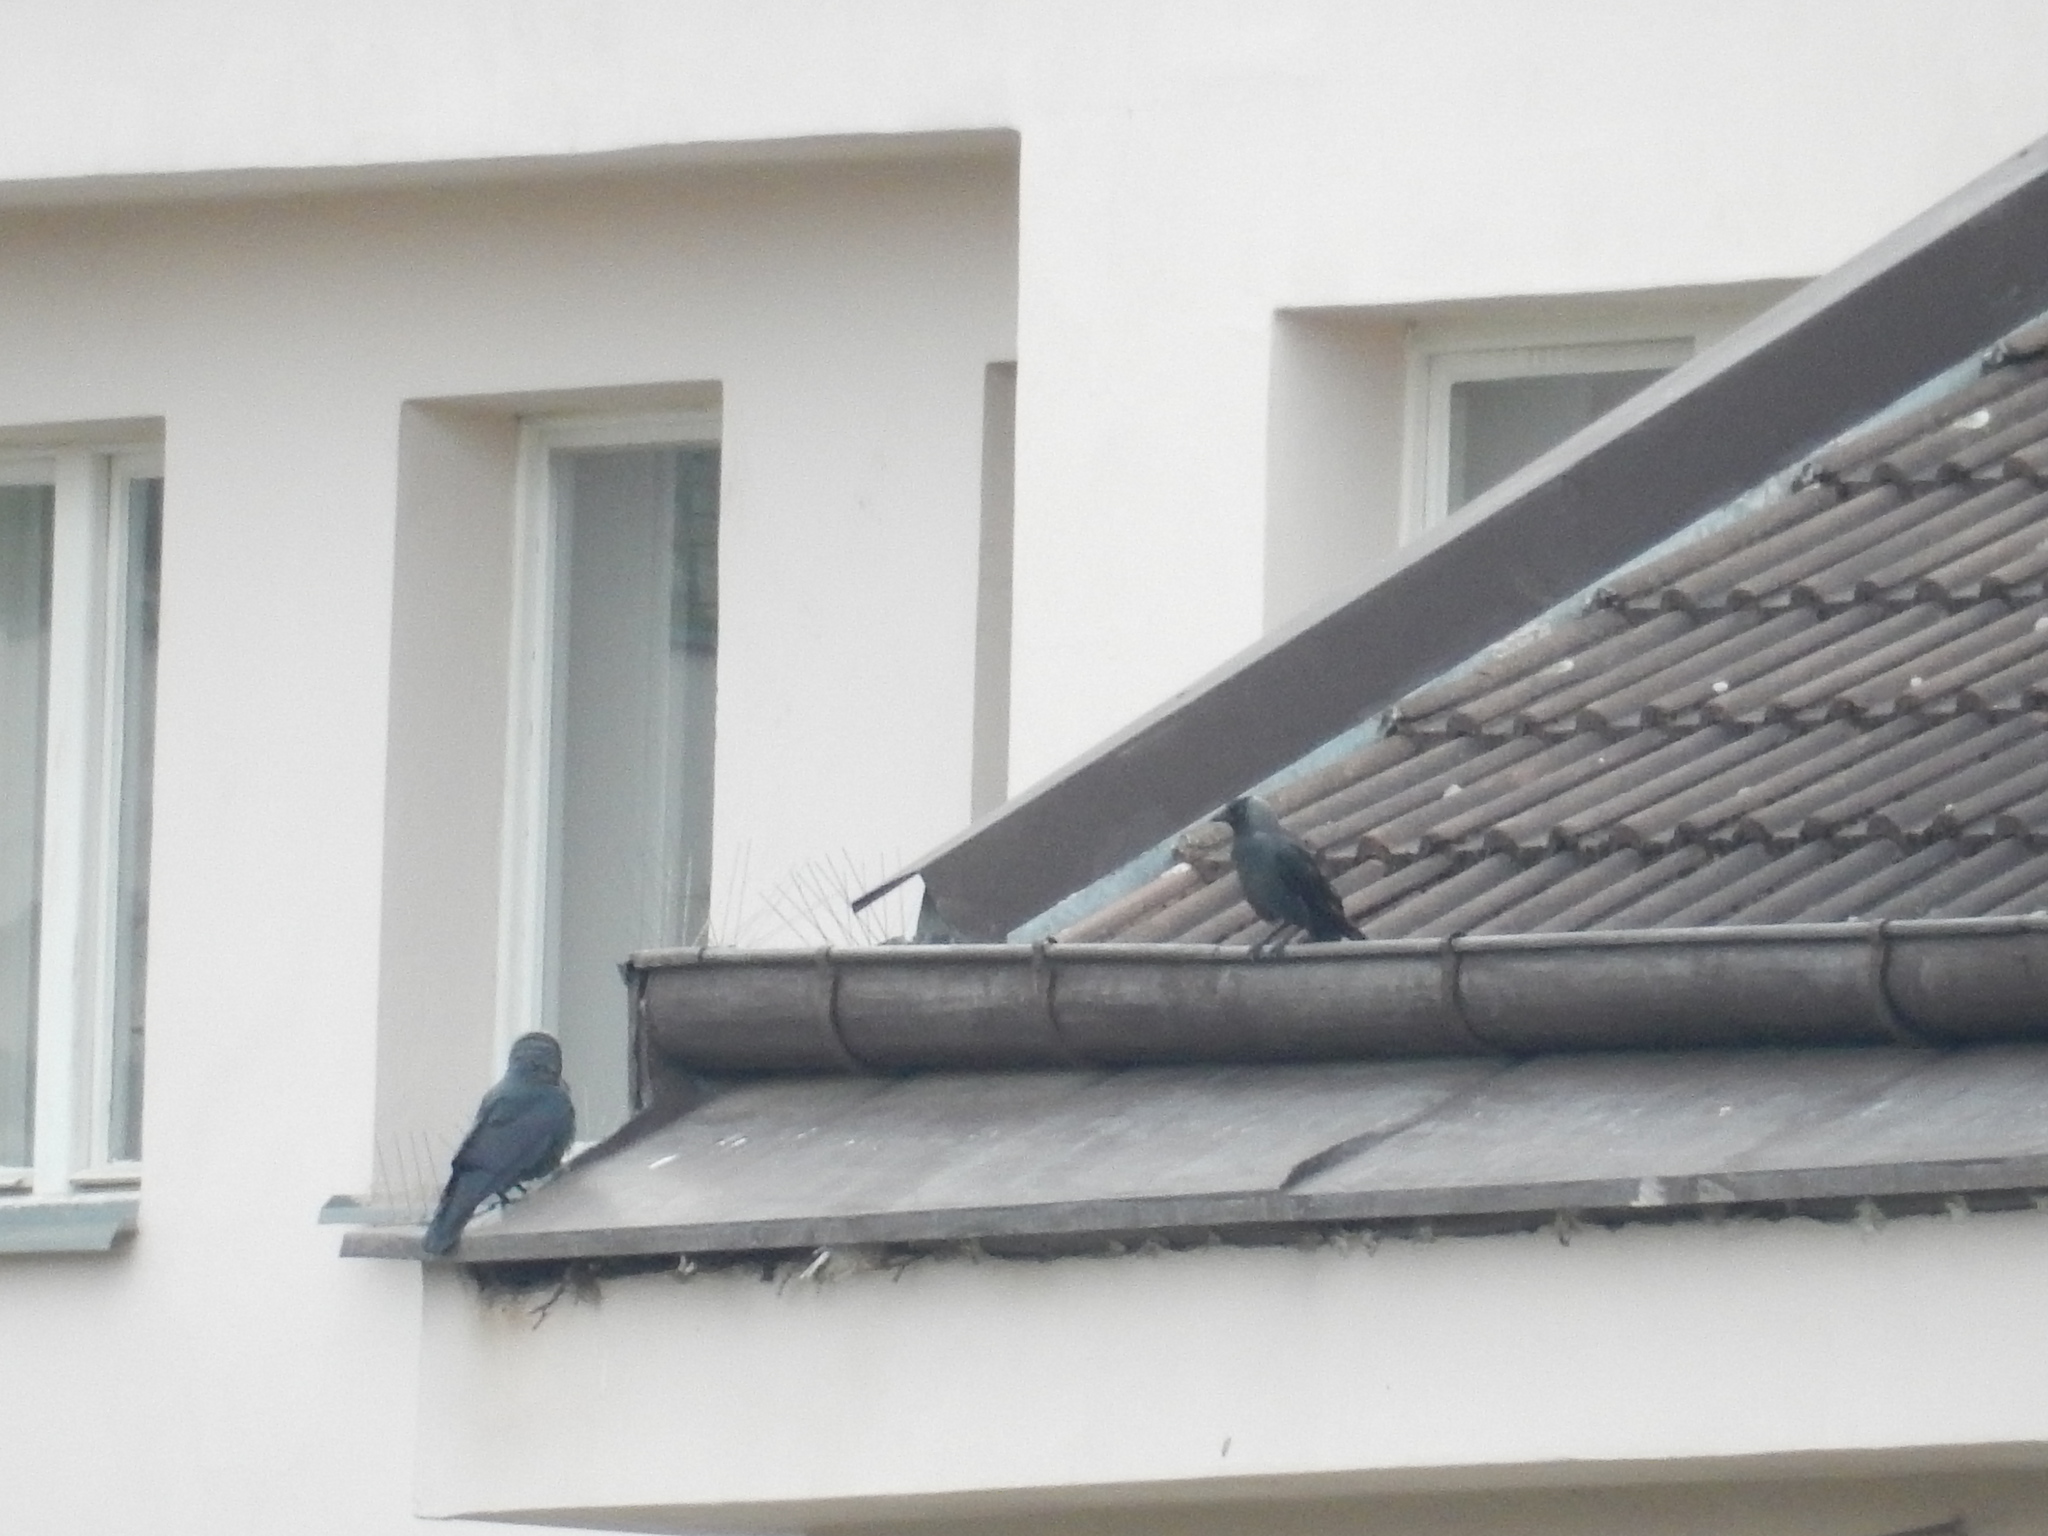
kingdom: Animalia
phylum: Chordata
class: Aves
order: Passeriformes
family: Corvidae
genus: Coloeus
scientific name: Coloeus monedula
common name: Western jackdaw
